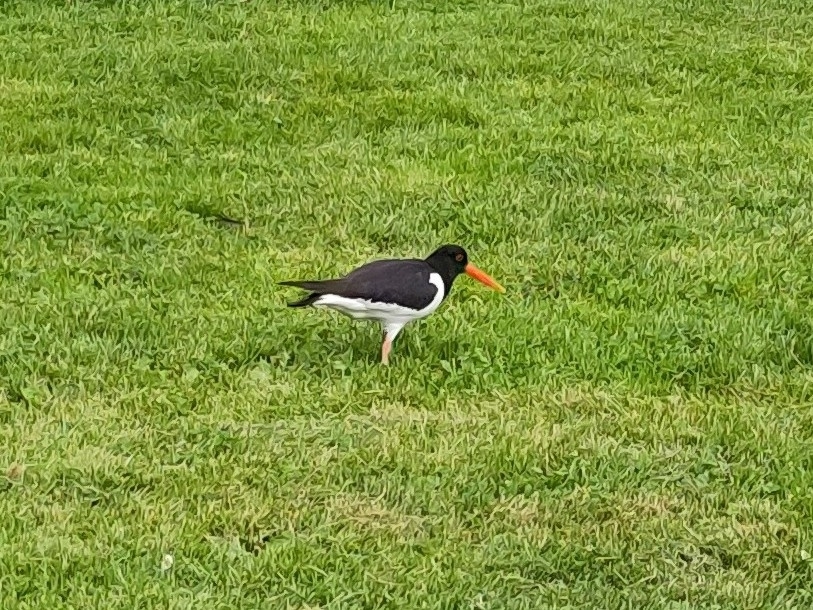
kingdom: Animalia
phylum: Chordata
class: Aves
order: Charadriiformes
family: Haematopodidae
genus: Haematopus
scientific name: Haematopus ostralegus
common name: Eurasian oystercatcher
